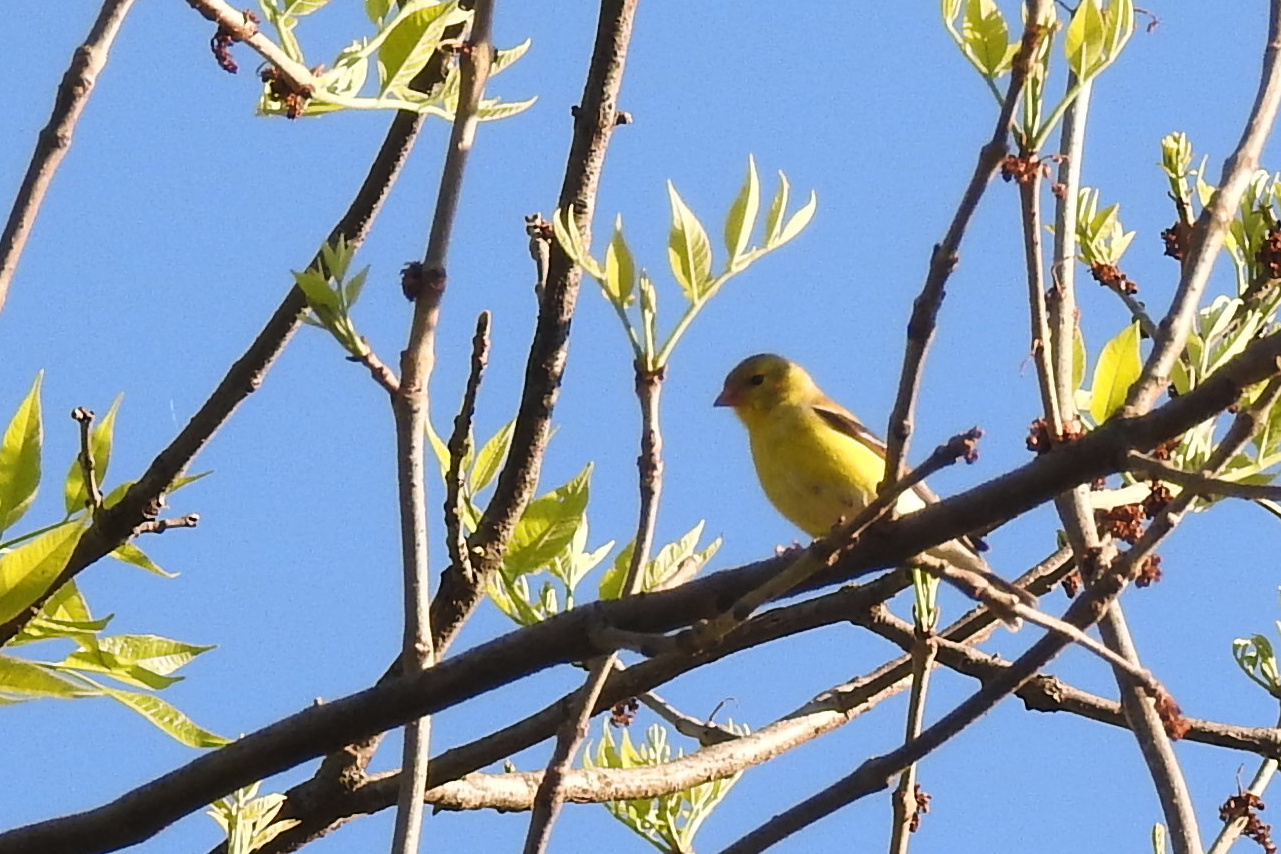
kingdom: Animalia
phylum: Chordata
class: Aves
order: Passeriformes
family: Fringillidae
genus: Spinus
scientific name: Spinus tristis
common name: American goldfinch
